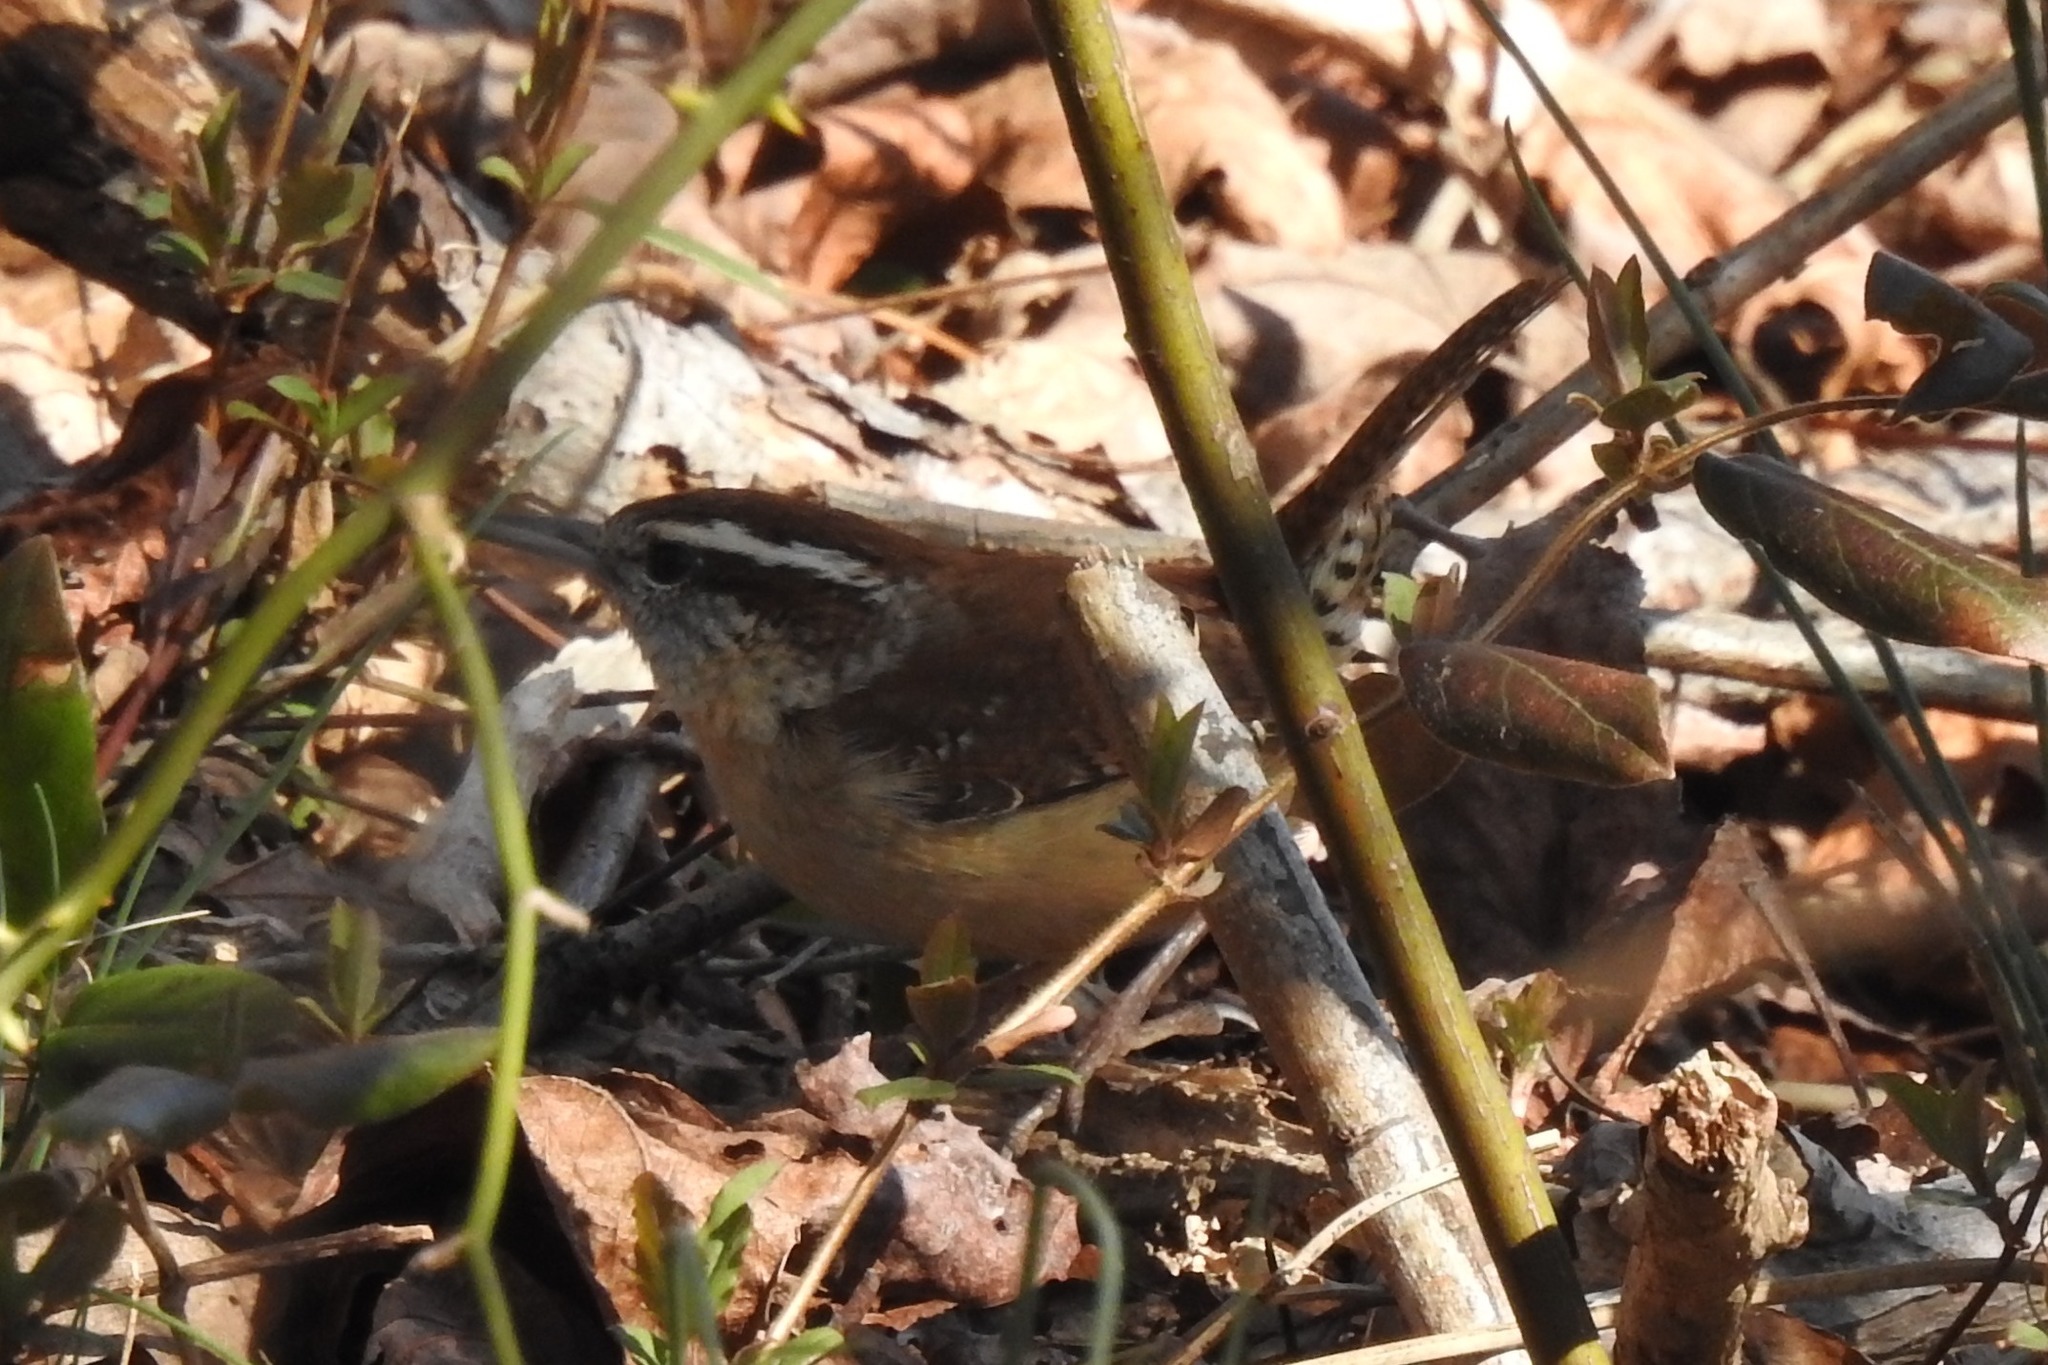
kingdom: Animalia
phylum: Chordata
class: Aves
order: Passeriformes
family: Troglodytidae
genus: Thryothorus
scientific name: Thryothorus ludovicianus
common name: Carolina wren
